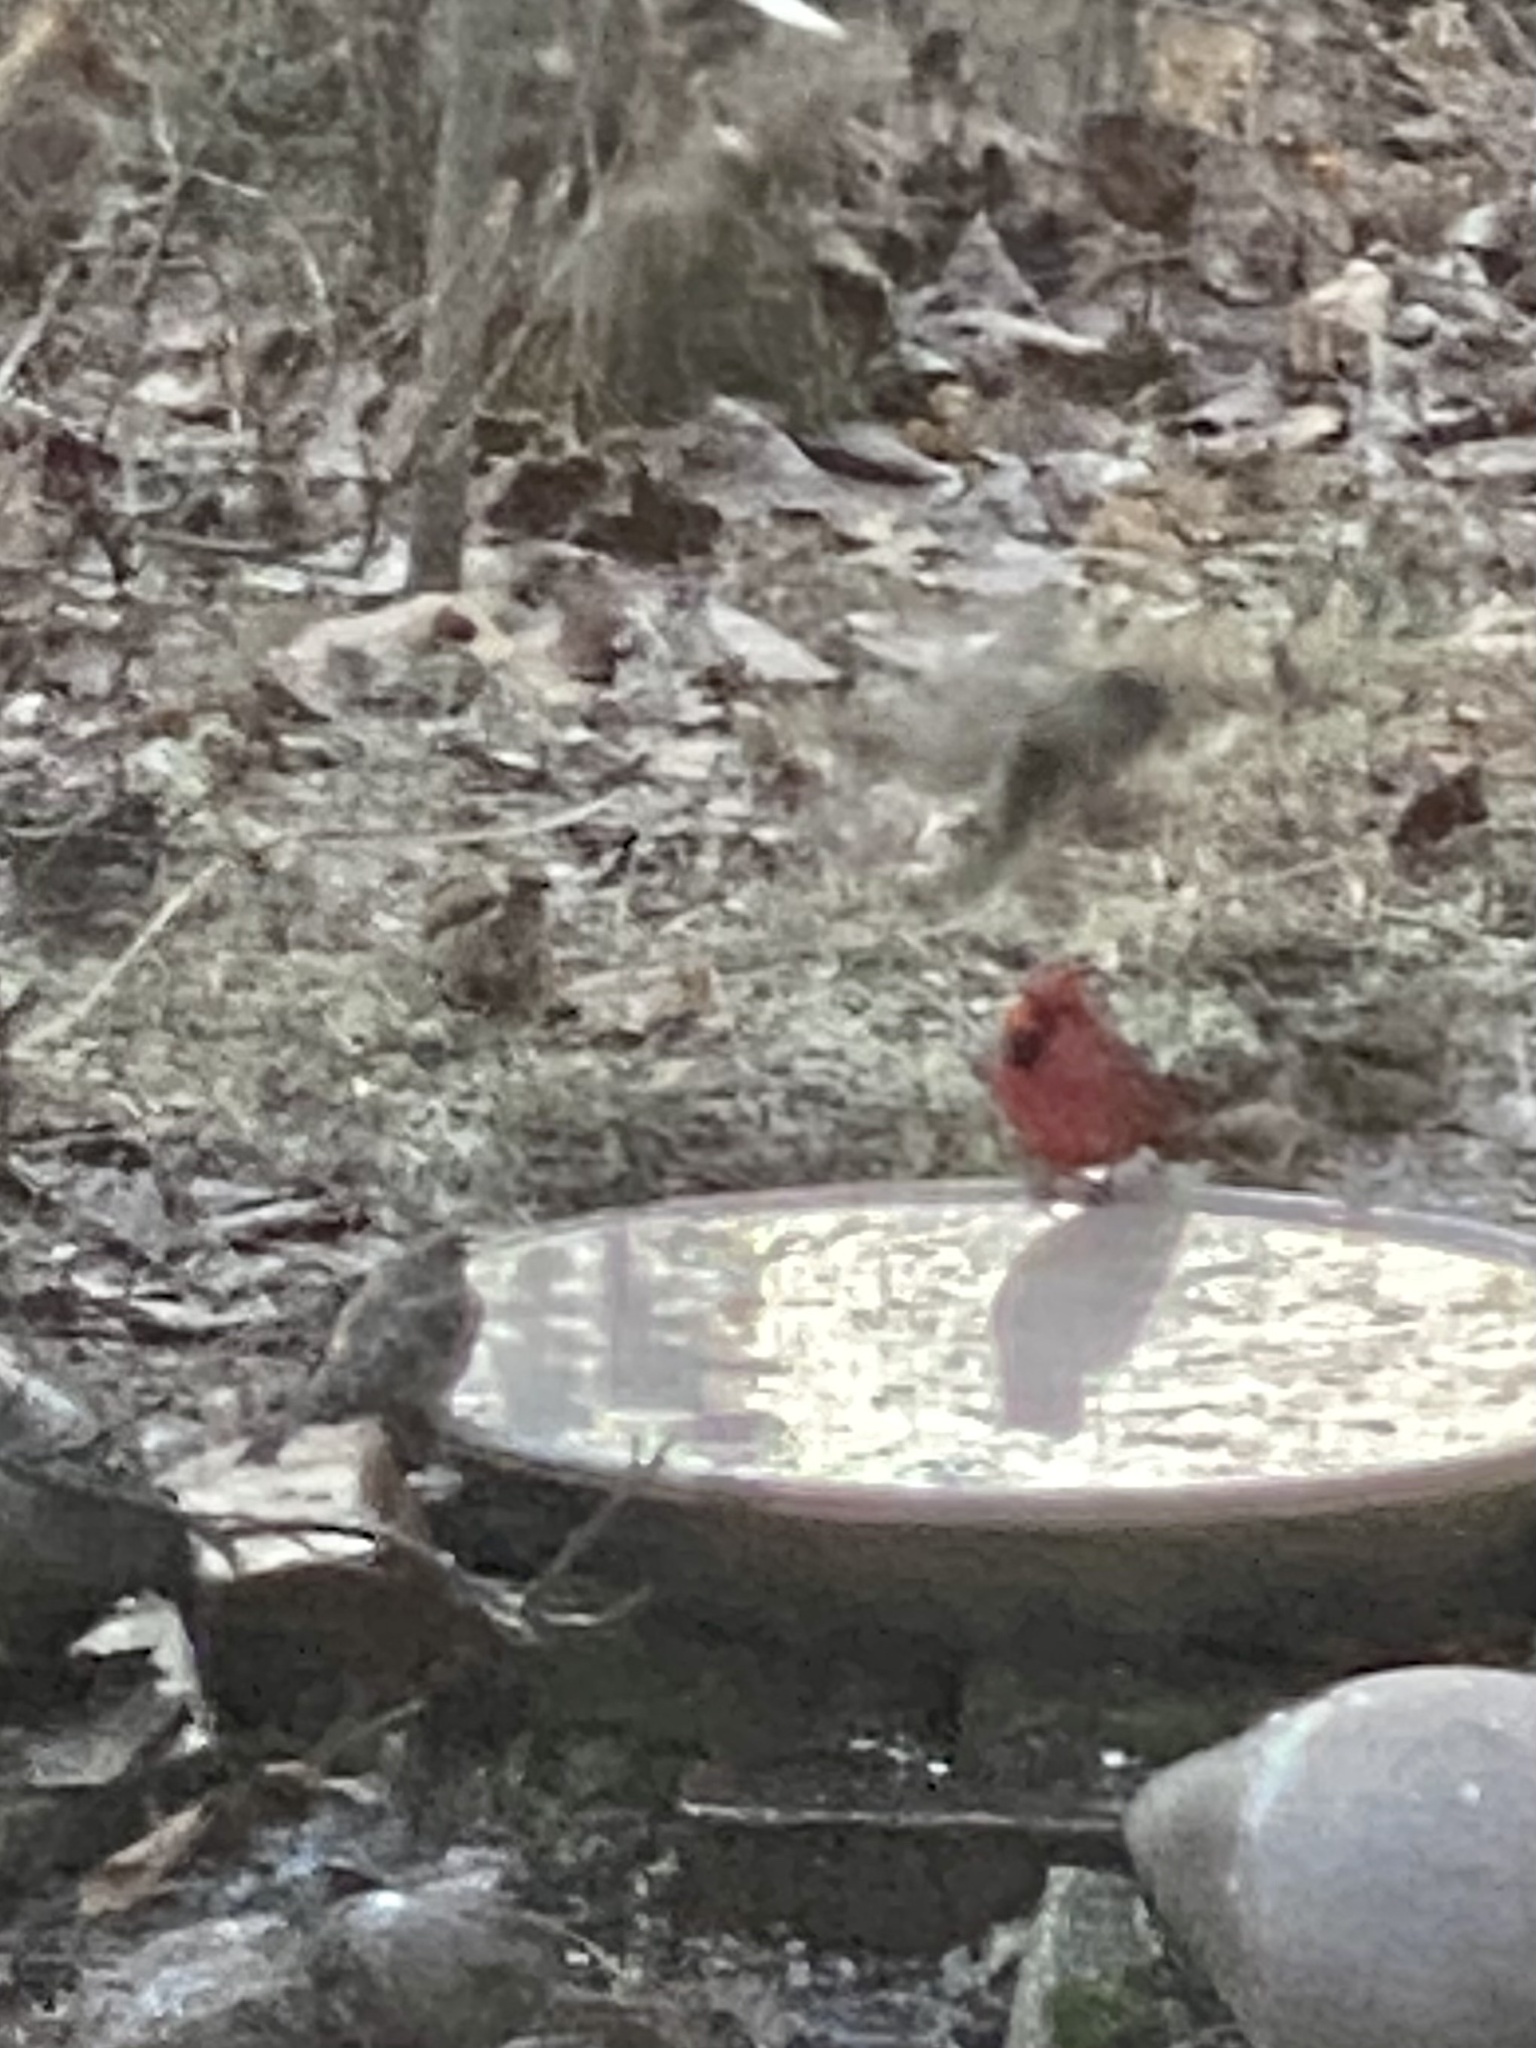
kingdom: Animalia
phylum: Chordata
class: Aves
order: Passeriformes
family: Cardinalidae
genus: Cardinalis
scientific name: Cardinalis cardinalis
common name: Northern cardinal
